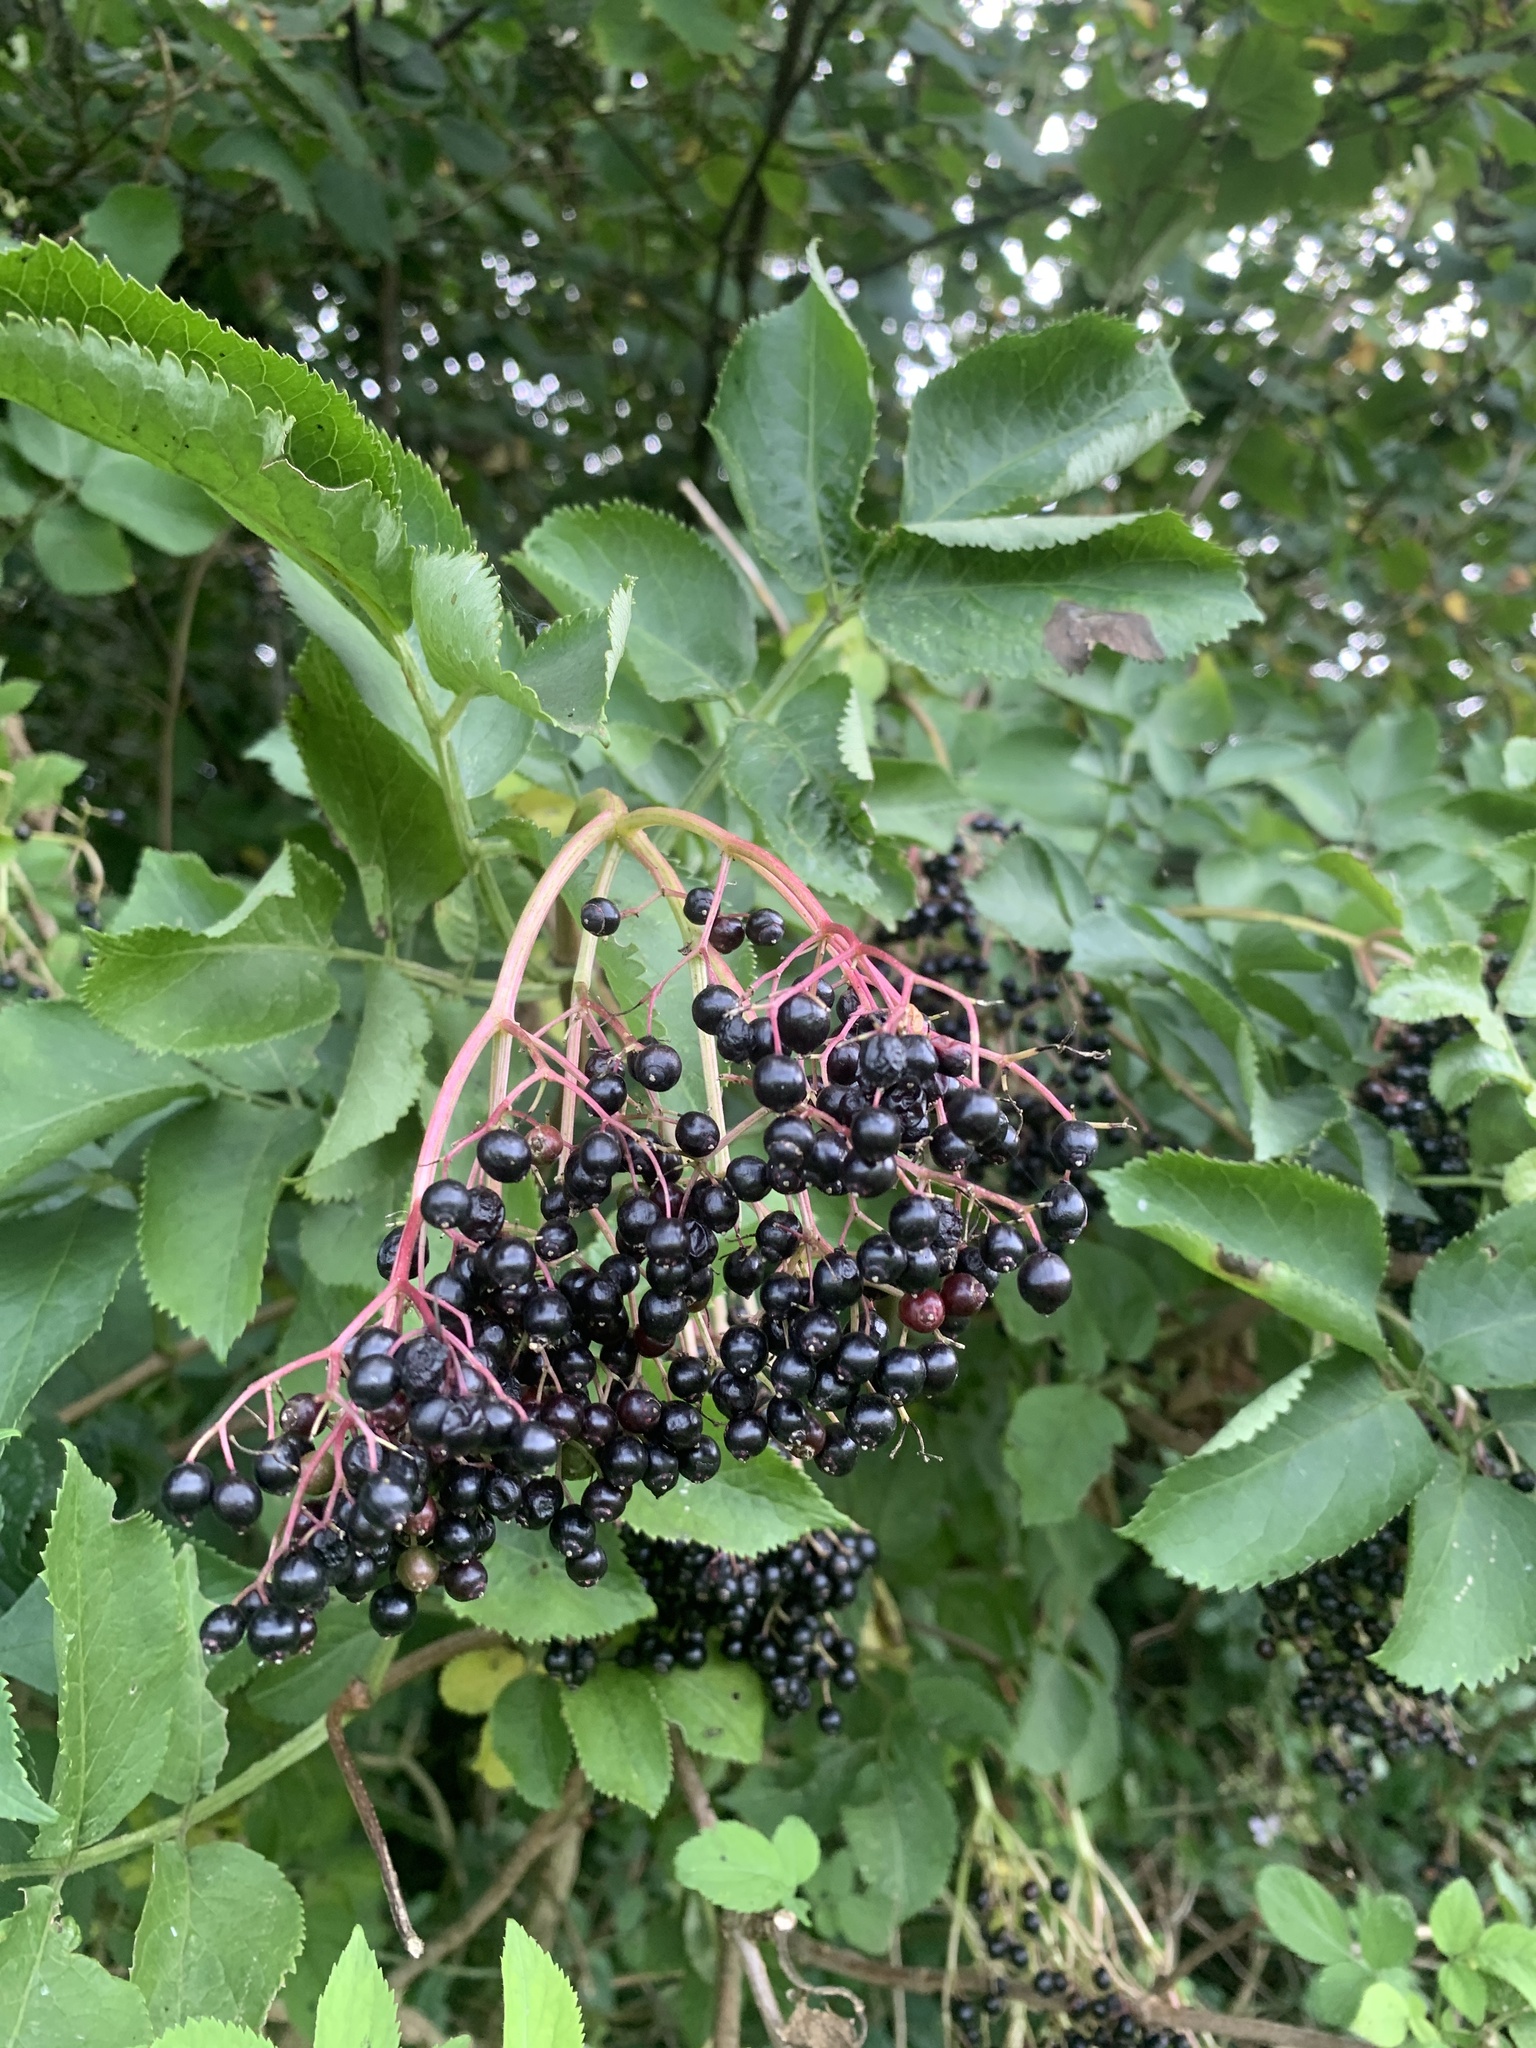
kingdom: Plantae
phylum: Tracheophyta
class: Magnoliopsida
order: Dipsacales
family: Viburnaceae
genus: Sambucus
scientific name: Sambucus nigra
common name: Elder
